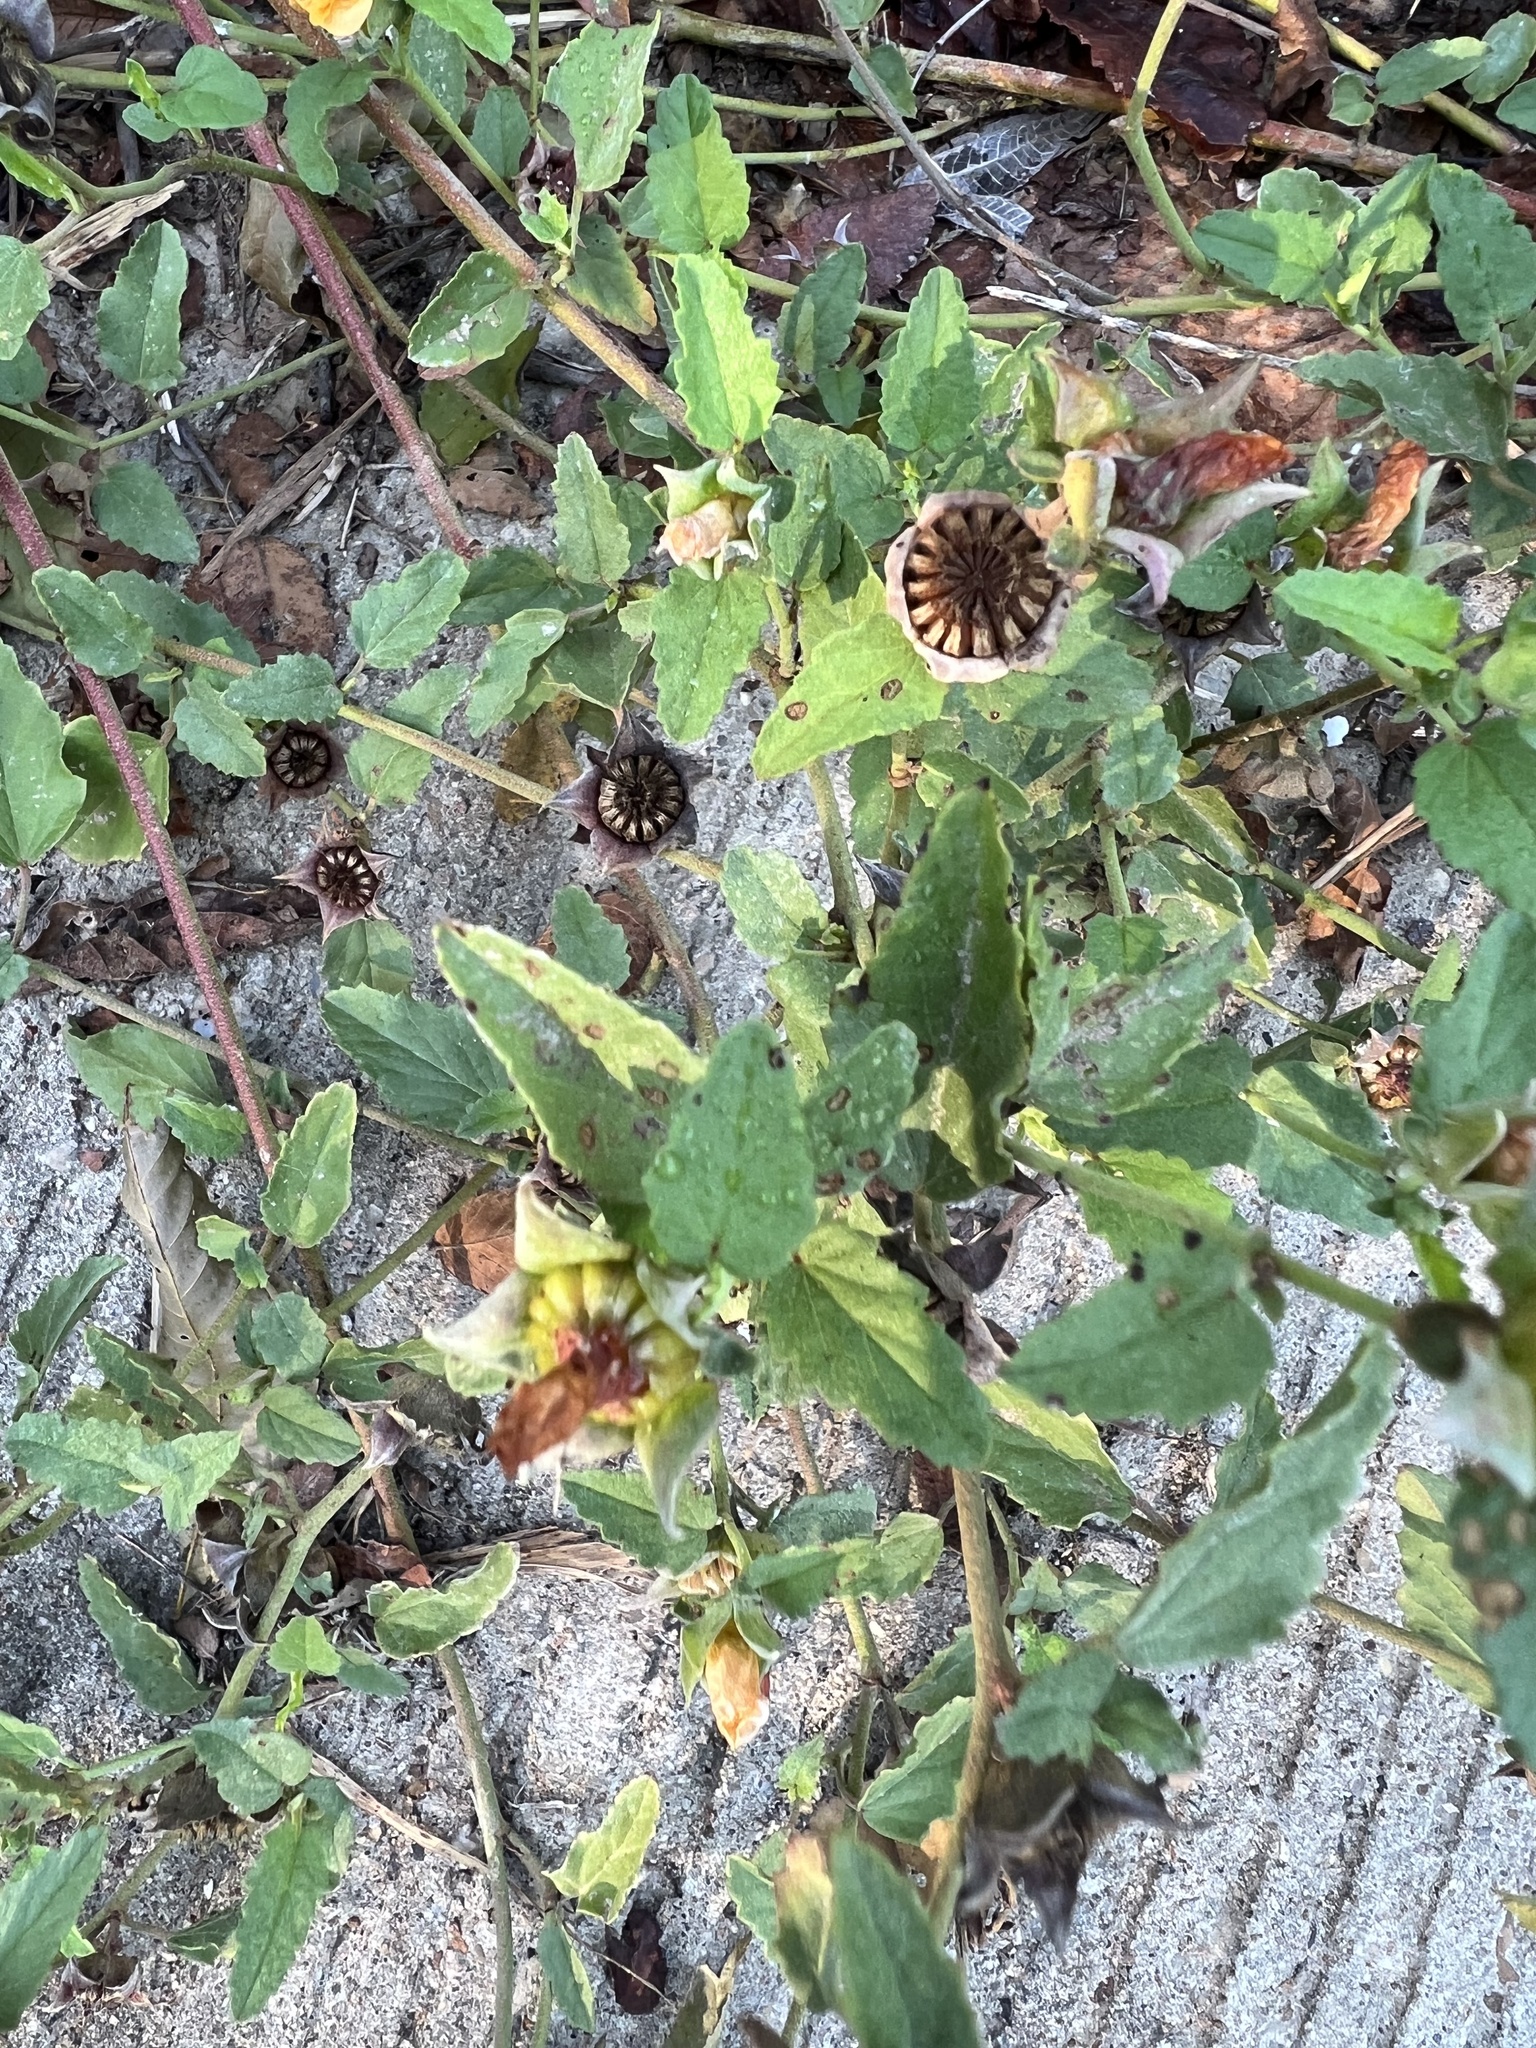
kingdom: Plantae
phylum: Tracheophyta
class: Magnoliopsida
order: Malvales
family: Malvaceae
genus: Malvastrum
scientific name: Malvastrum aurantiacum
